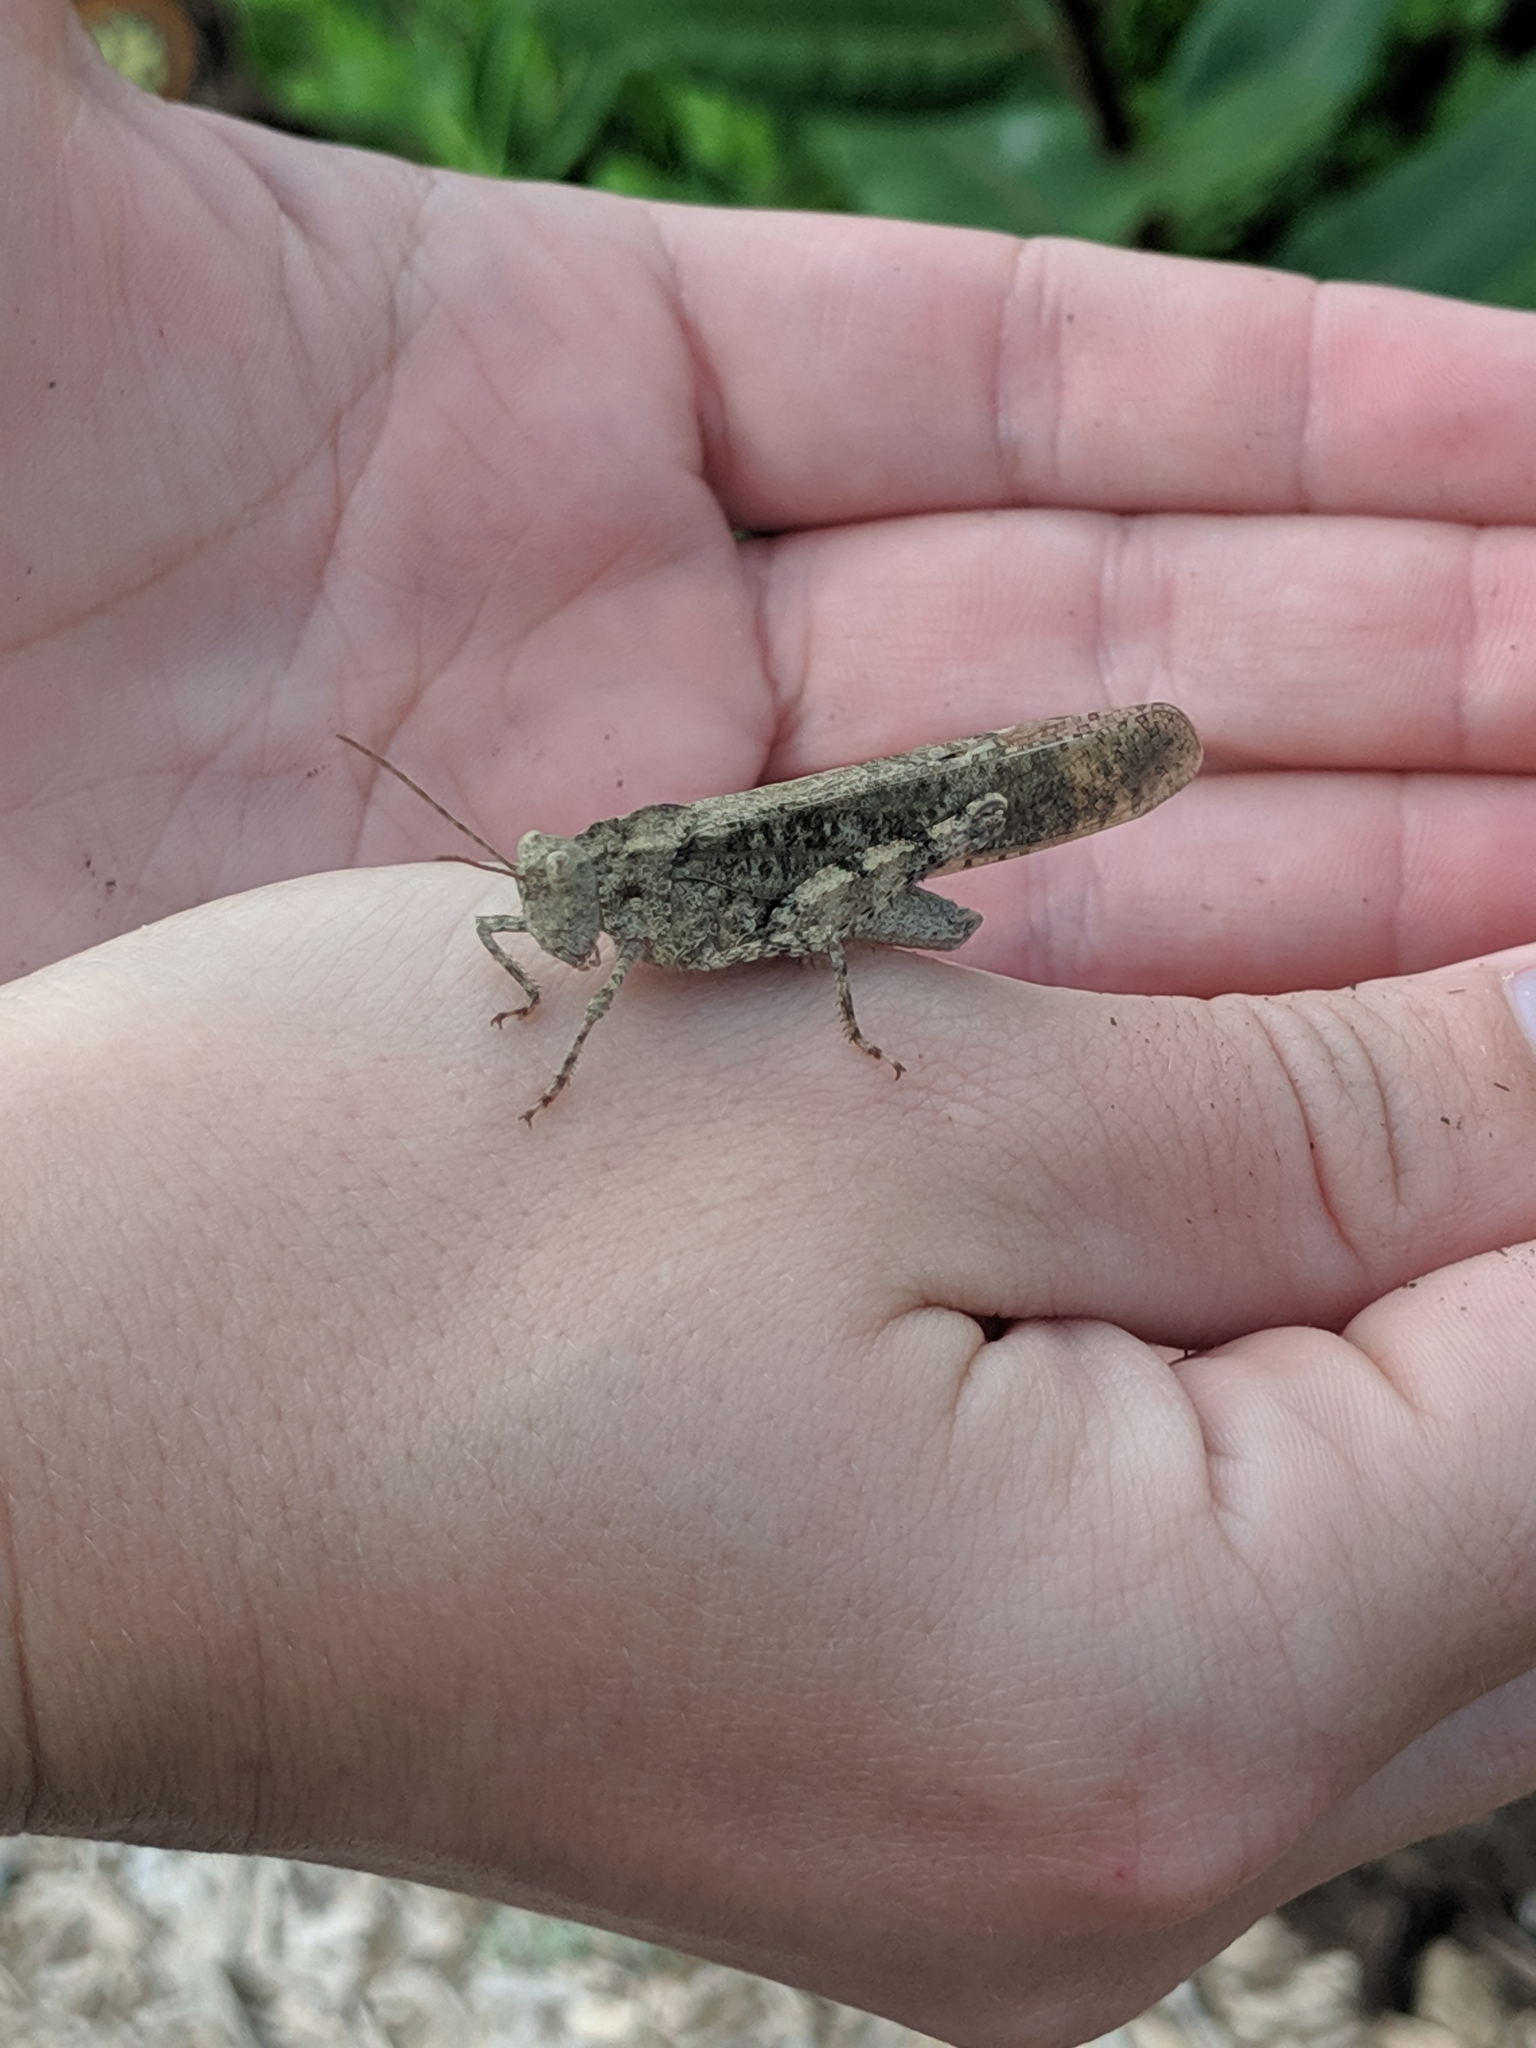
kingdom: Animalia
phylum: Arthropoda
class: Insecta
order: Orthoptera
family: Acrididae
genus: Dissosteira
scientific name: Dissosteira carolina
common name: Carolina grasshopper
